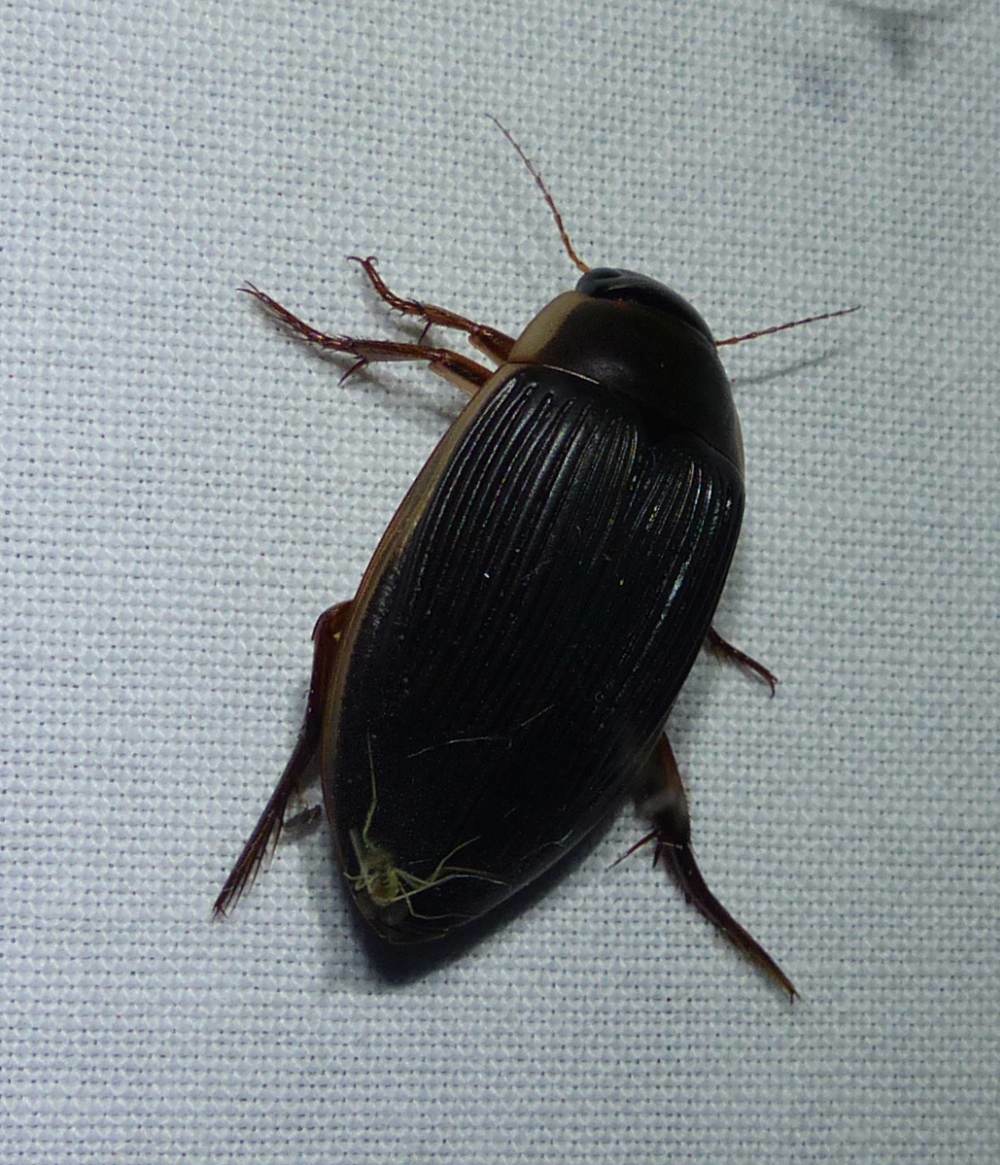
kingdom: Animalia
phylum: Arthropoda
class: Insecta
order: Coleoptera
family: Dytiscidae
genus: Dytiscus
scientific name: Dytiscus
